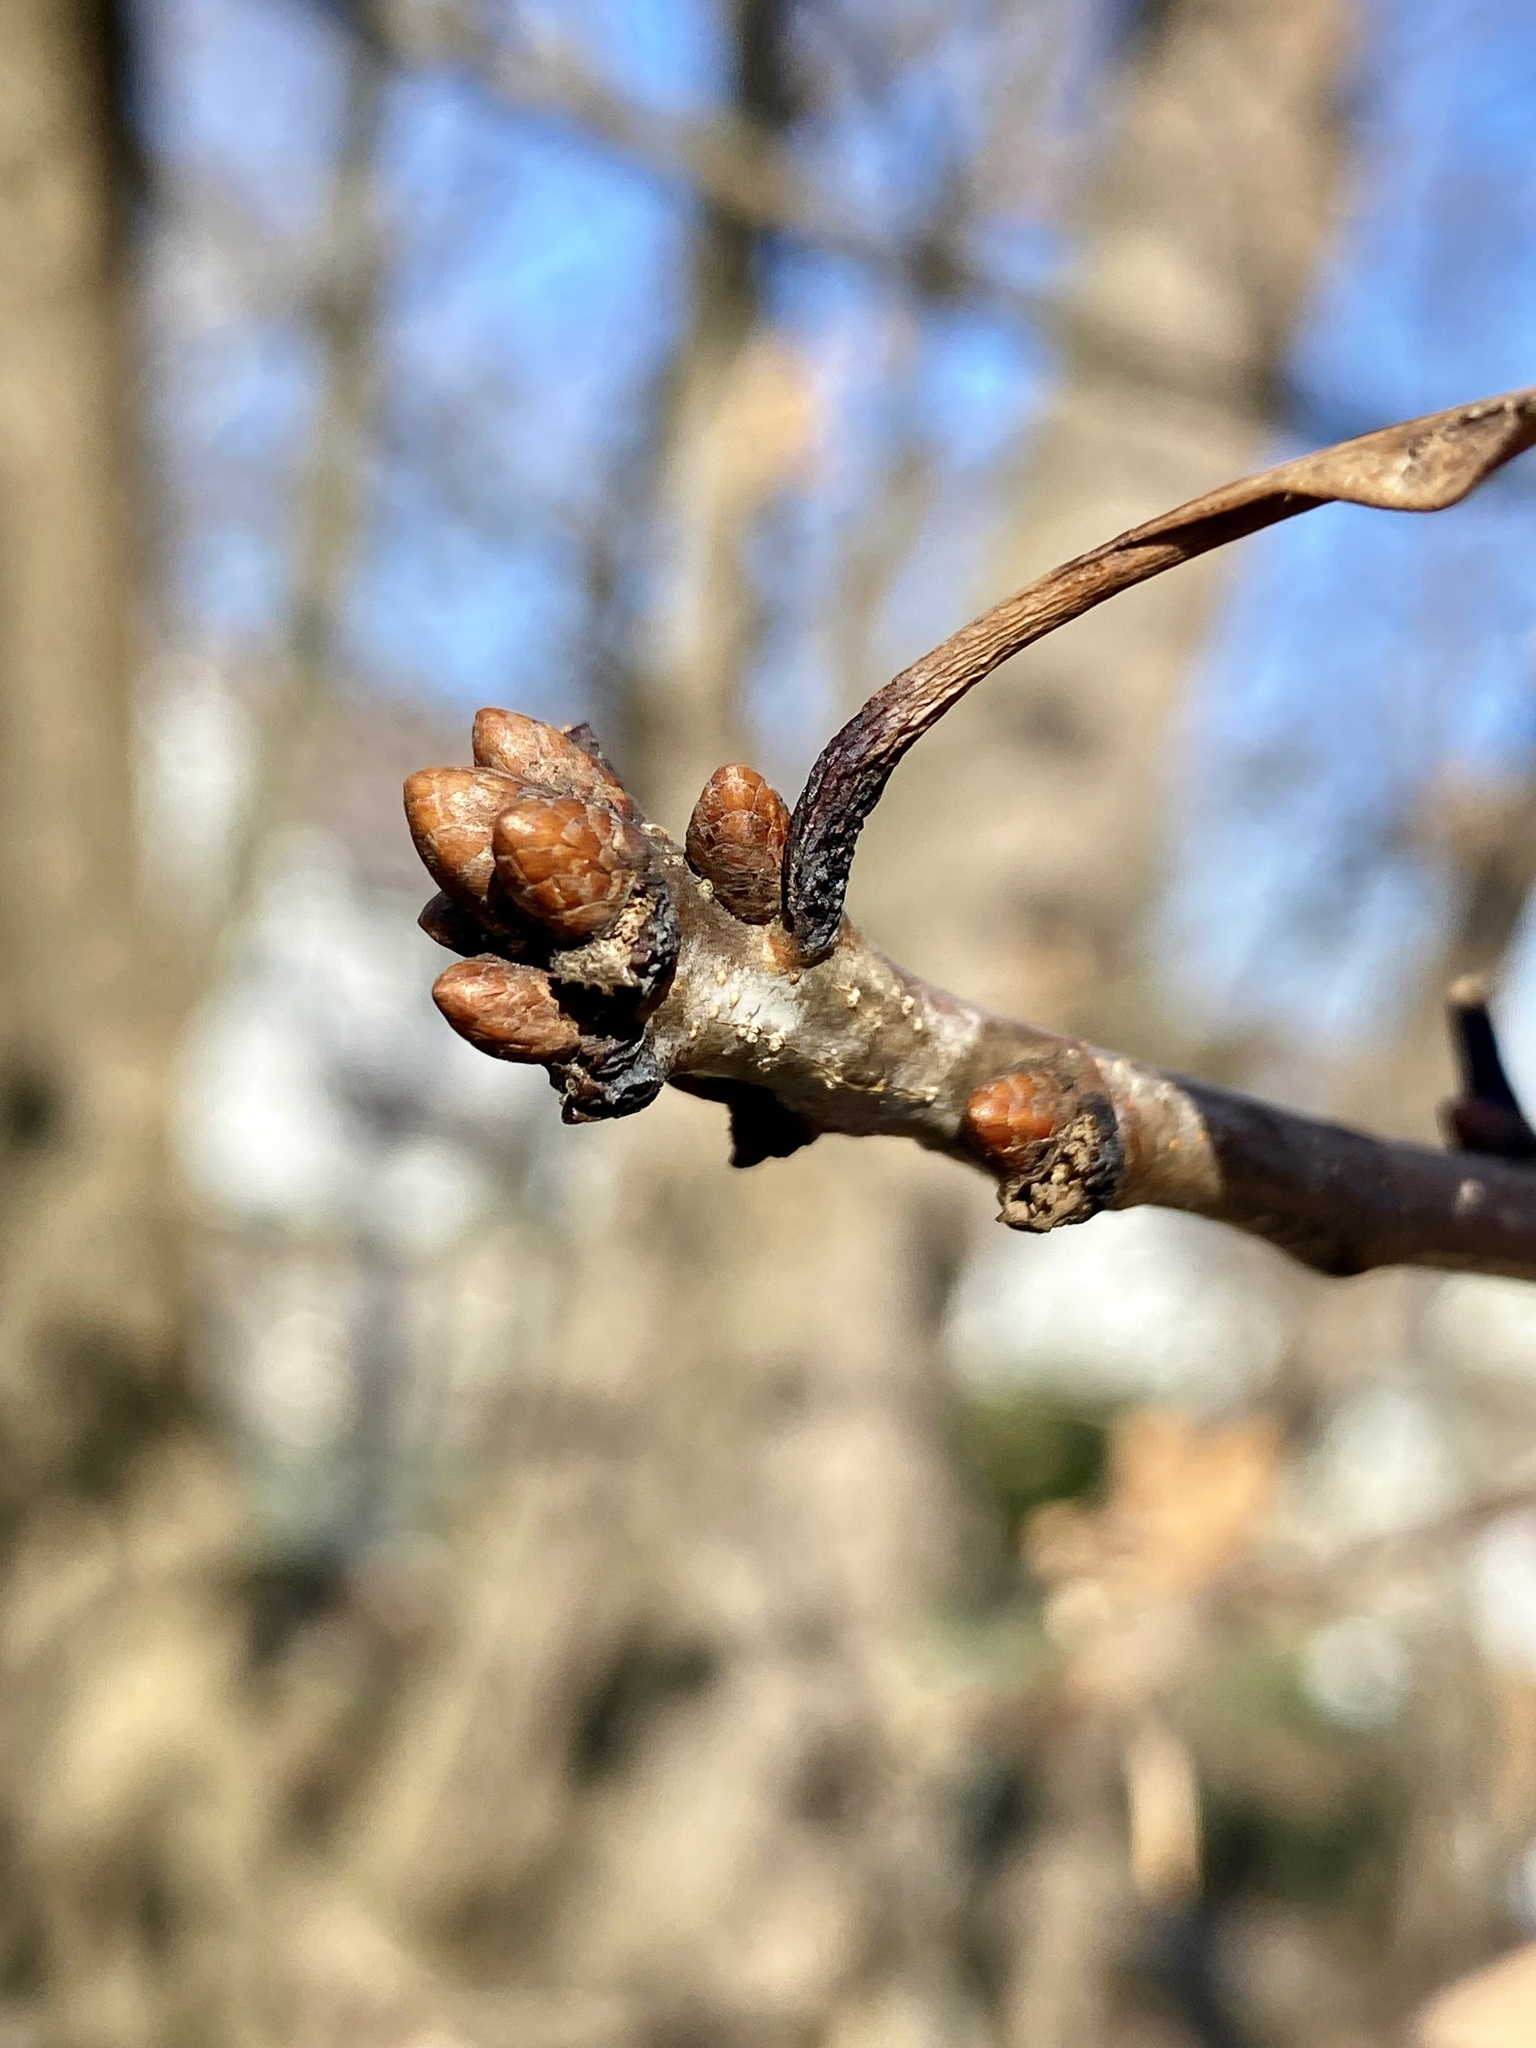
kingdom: Plantae
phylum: Tracheophyta
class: Magnoliopsida
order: Fagales
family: Fagaceae
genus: Quercus
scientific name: Quercus alba
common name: White oak
